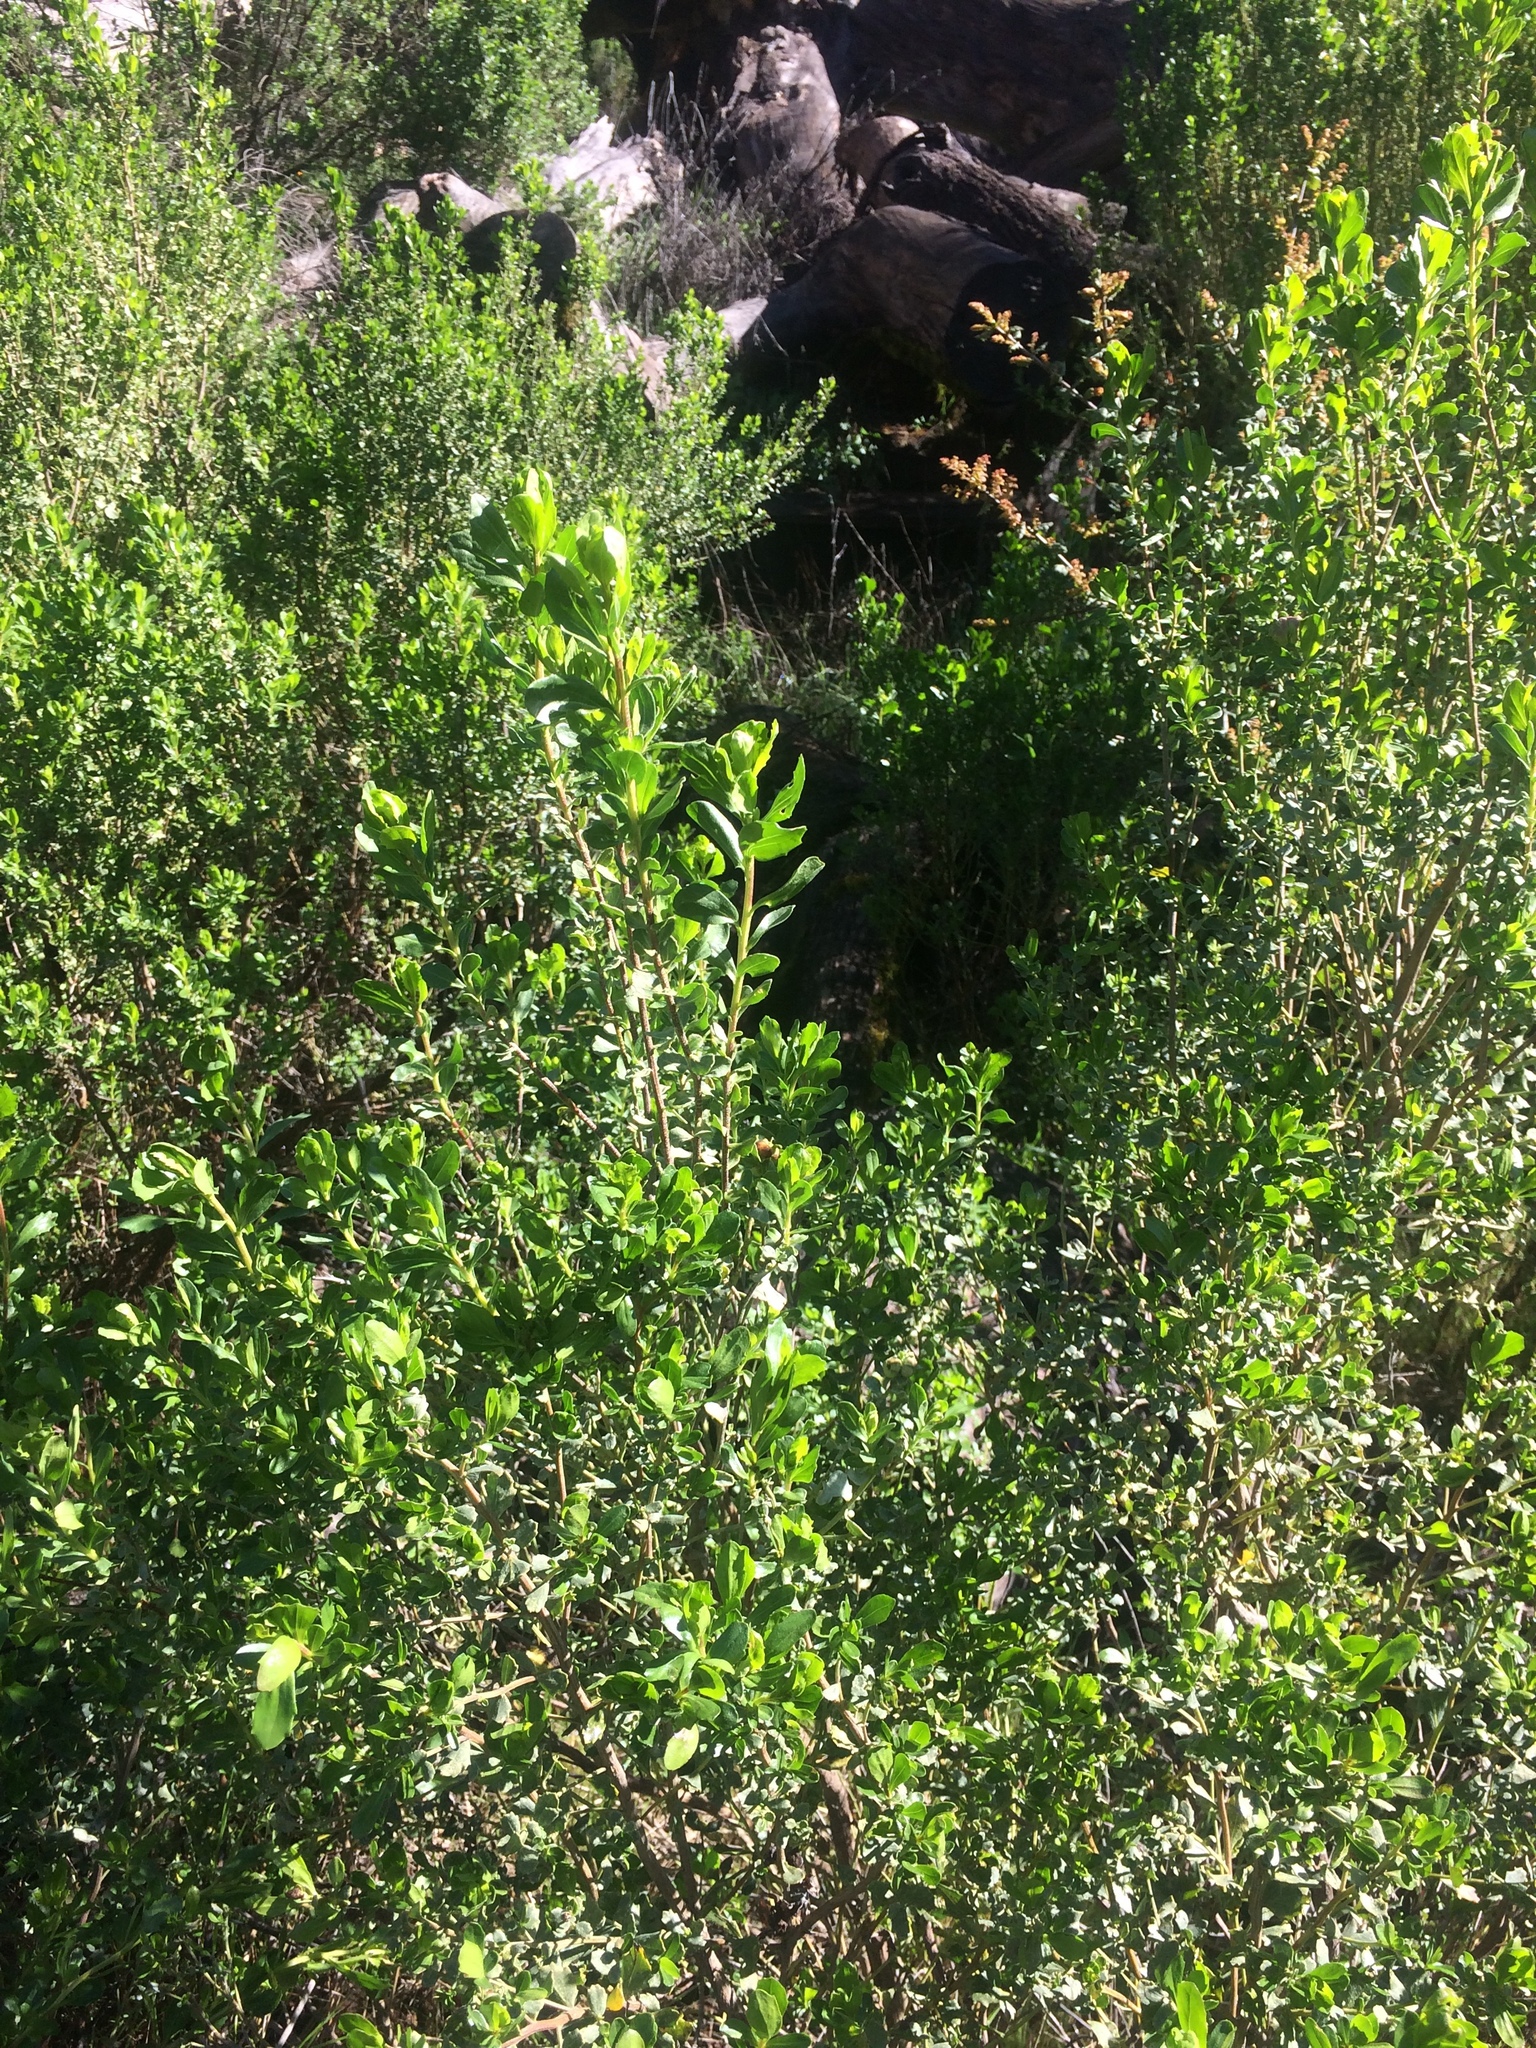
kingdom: Plantae
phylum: Tracheophyta
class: Magnoliopsida
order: Asterales
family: Asteraceae
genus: Baccharis
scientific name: Baccharis pilularis
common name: Coyotebrush
